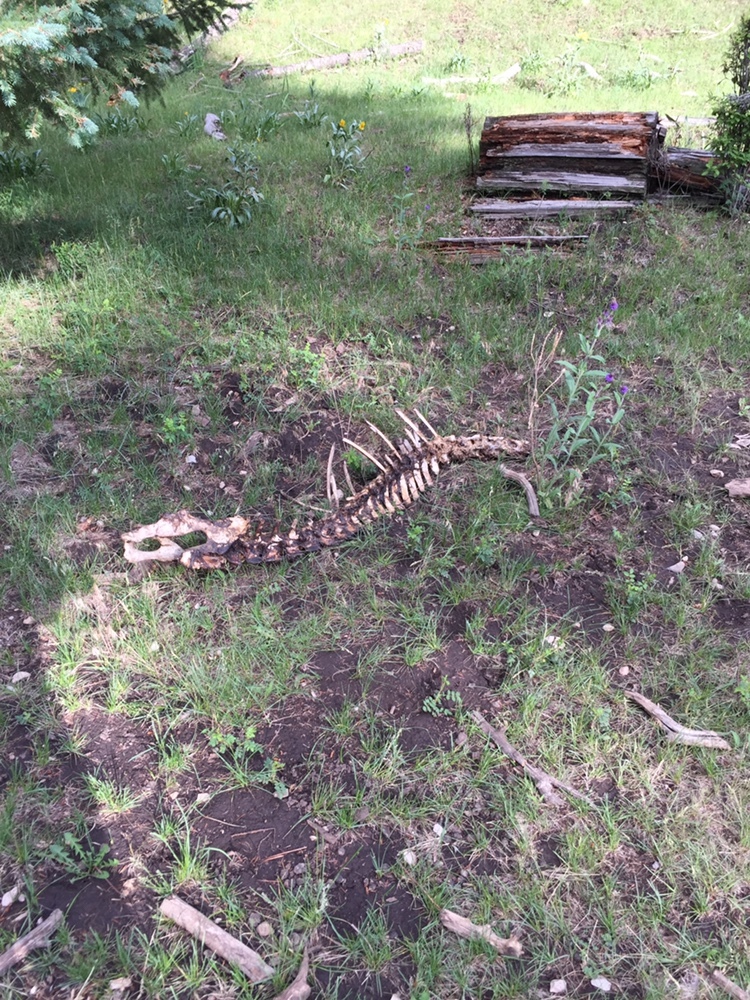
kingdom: Animalia
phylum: Chordata
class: Mammalia
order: Artiodactyla
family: Cervidae
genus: Cervus
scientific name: Cervus elaphus
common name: Red deer
